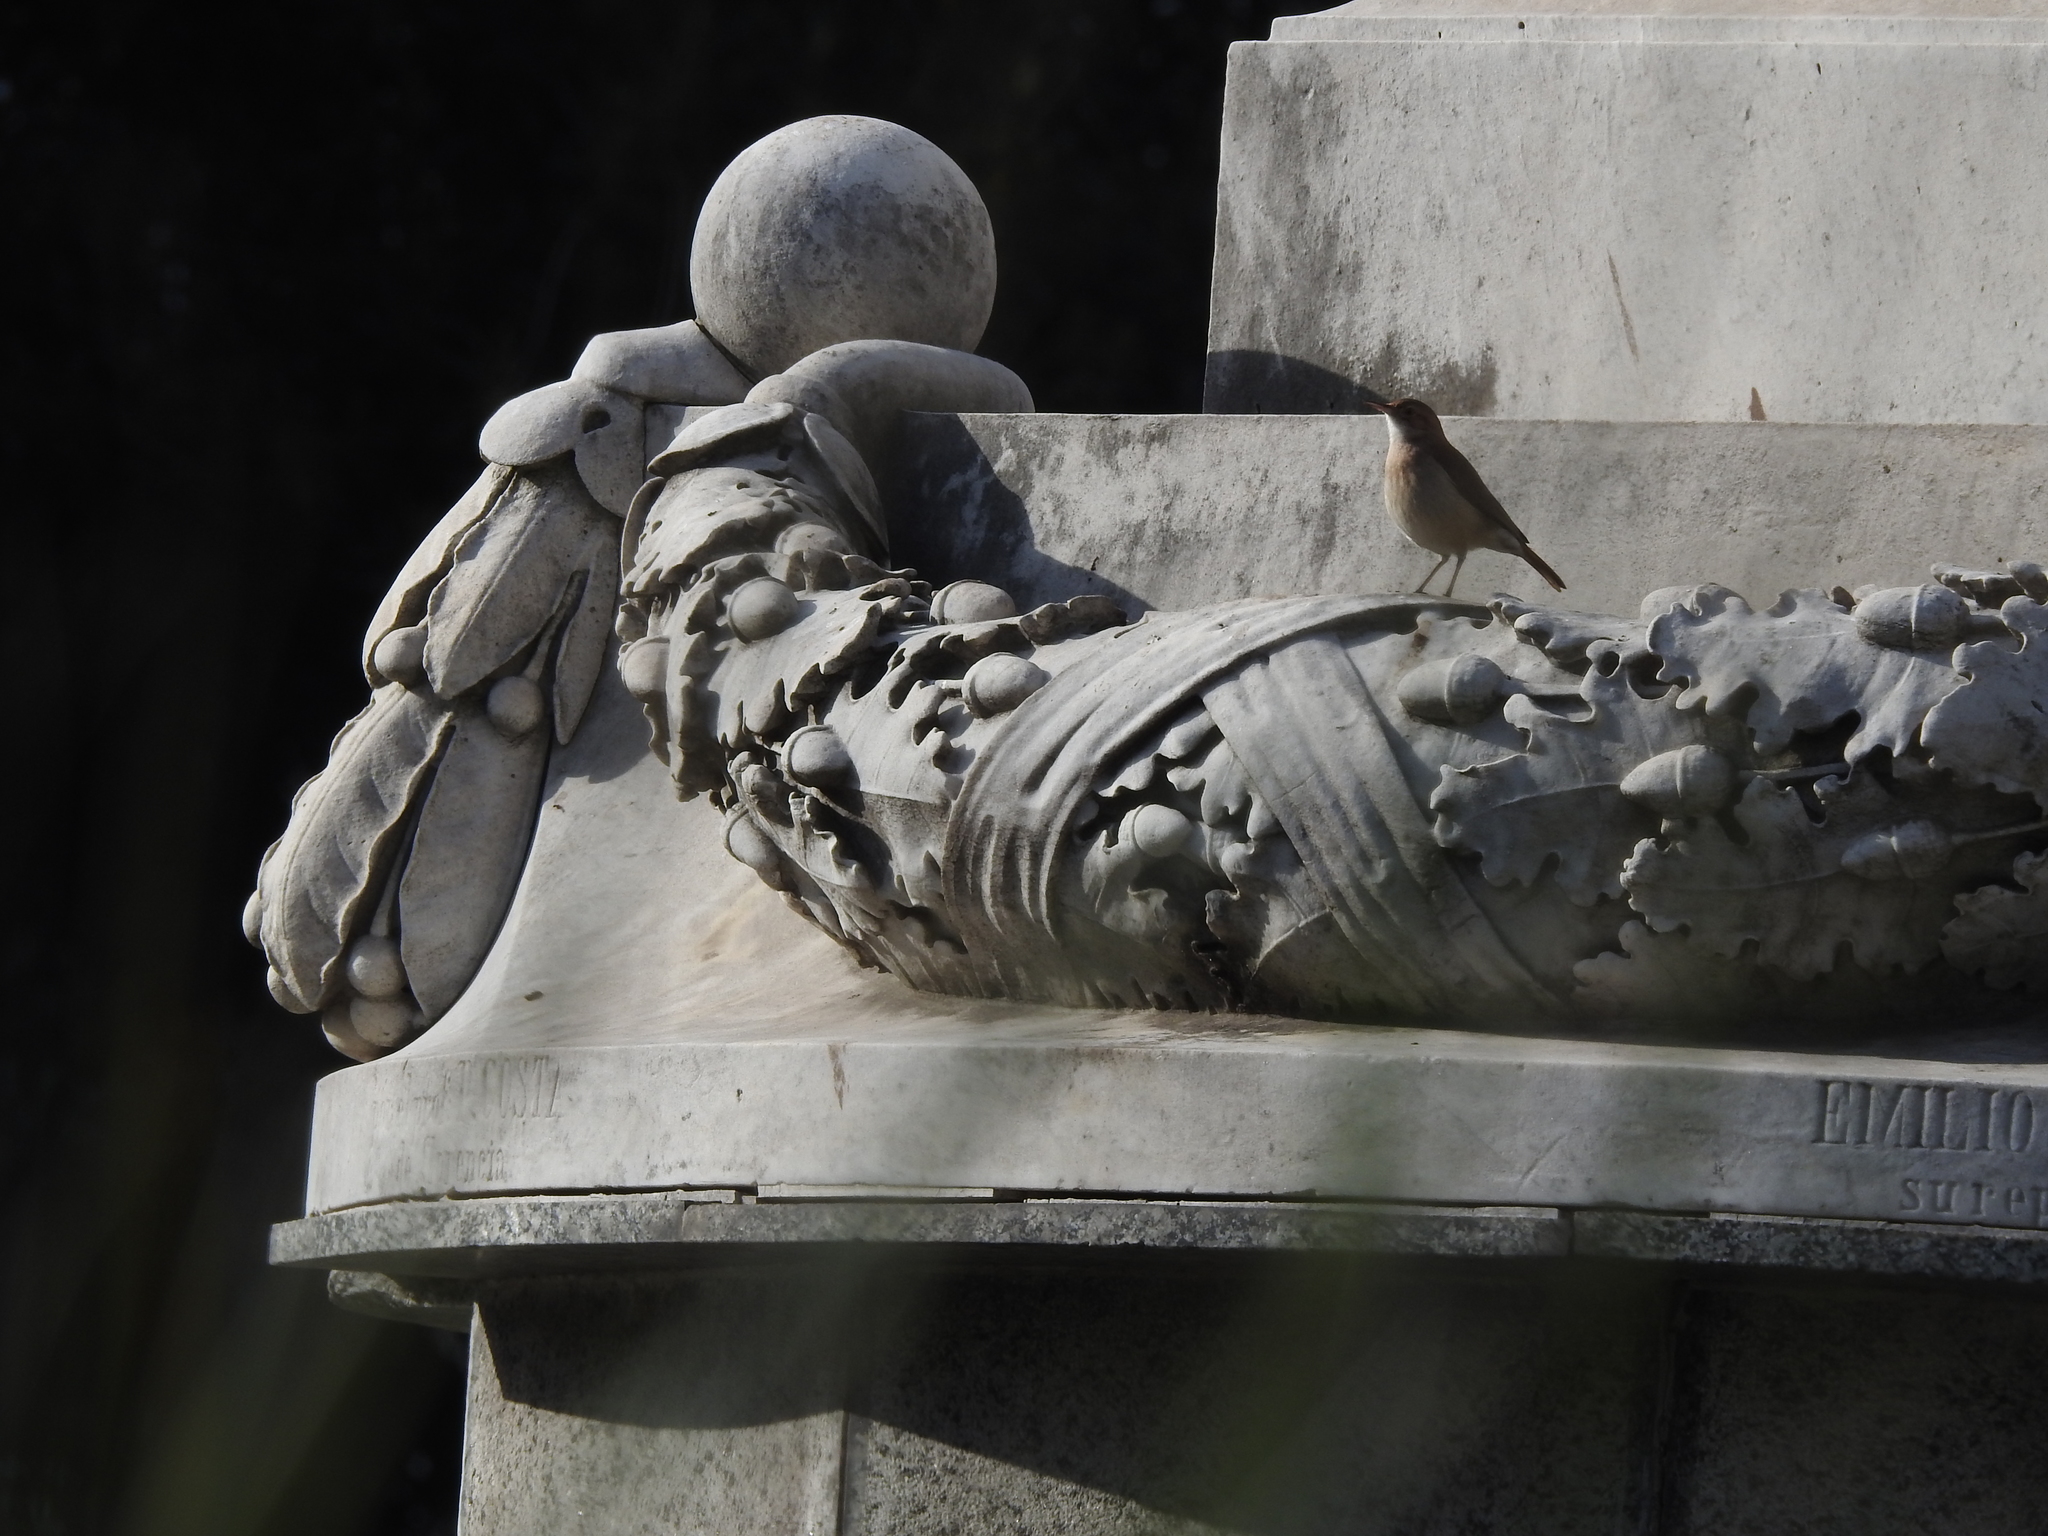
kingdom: Animalia
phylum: Chordata
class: Aves
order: Passeriformes
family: Furnariidae
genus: Furnarius
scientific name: Furnarius rufus
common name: Rufous hornero
